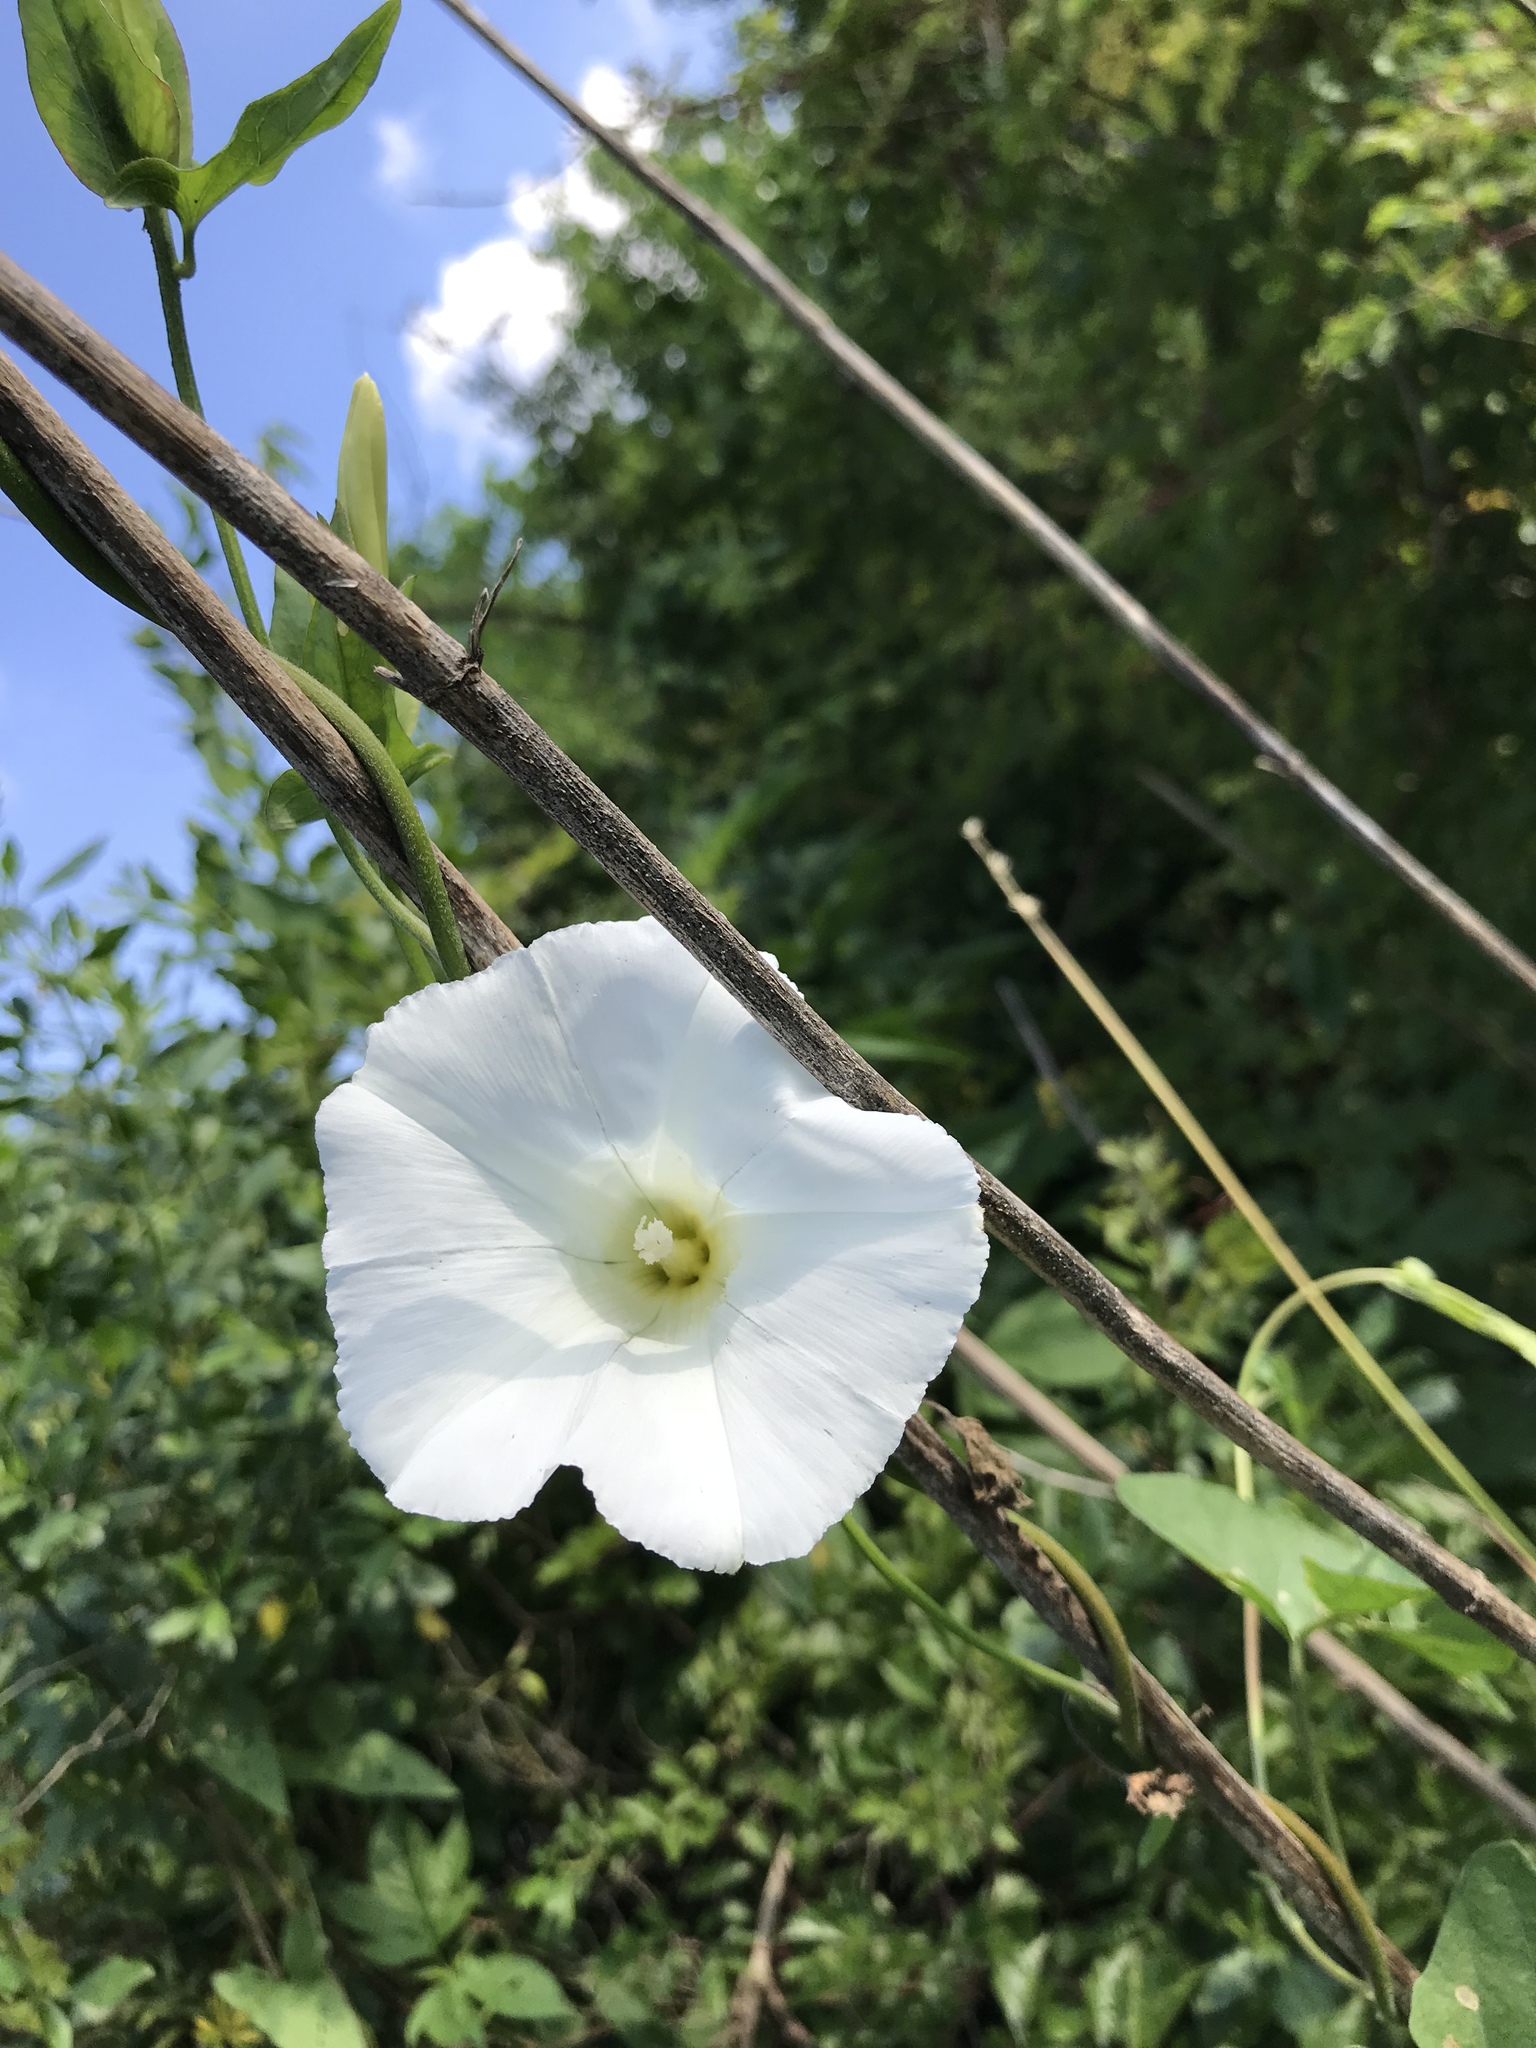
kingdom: Plantae
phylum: Tracheophyta
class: Magnoliopsida
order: Solanales
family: Convolvulaceae
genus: Calystegia
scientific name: Calystegia sepium
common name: Hedge bindweed
